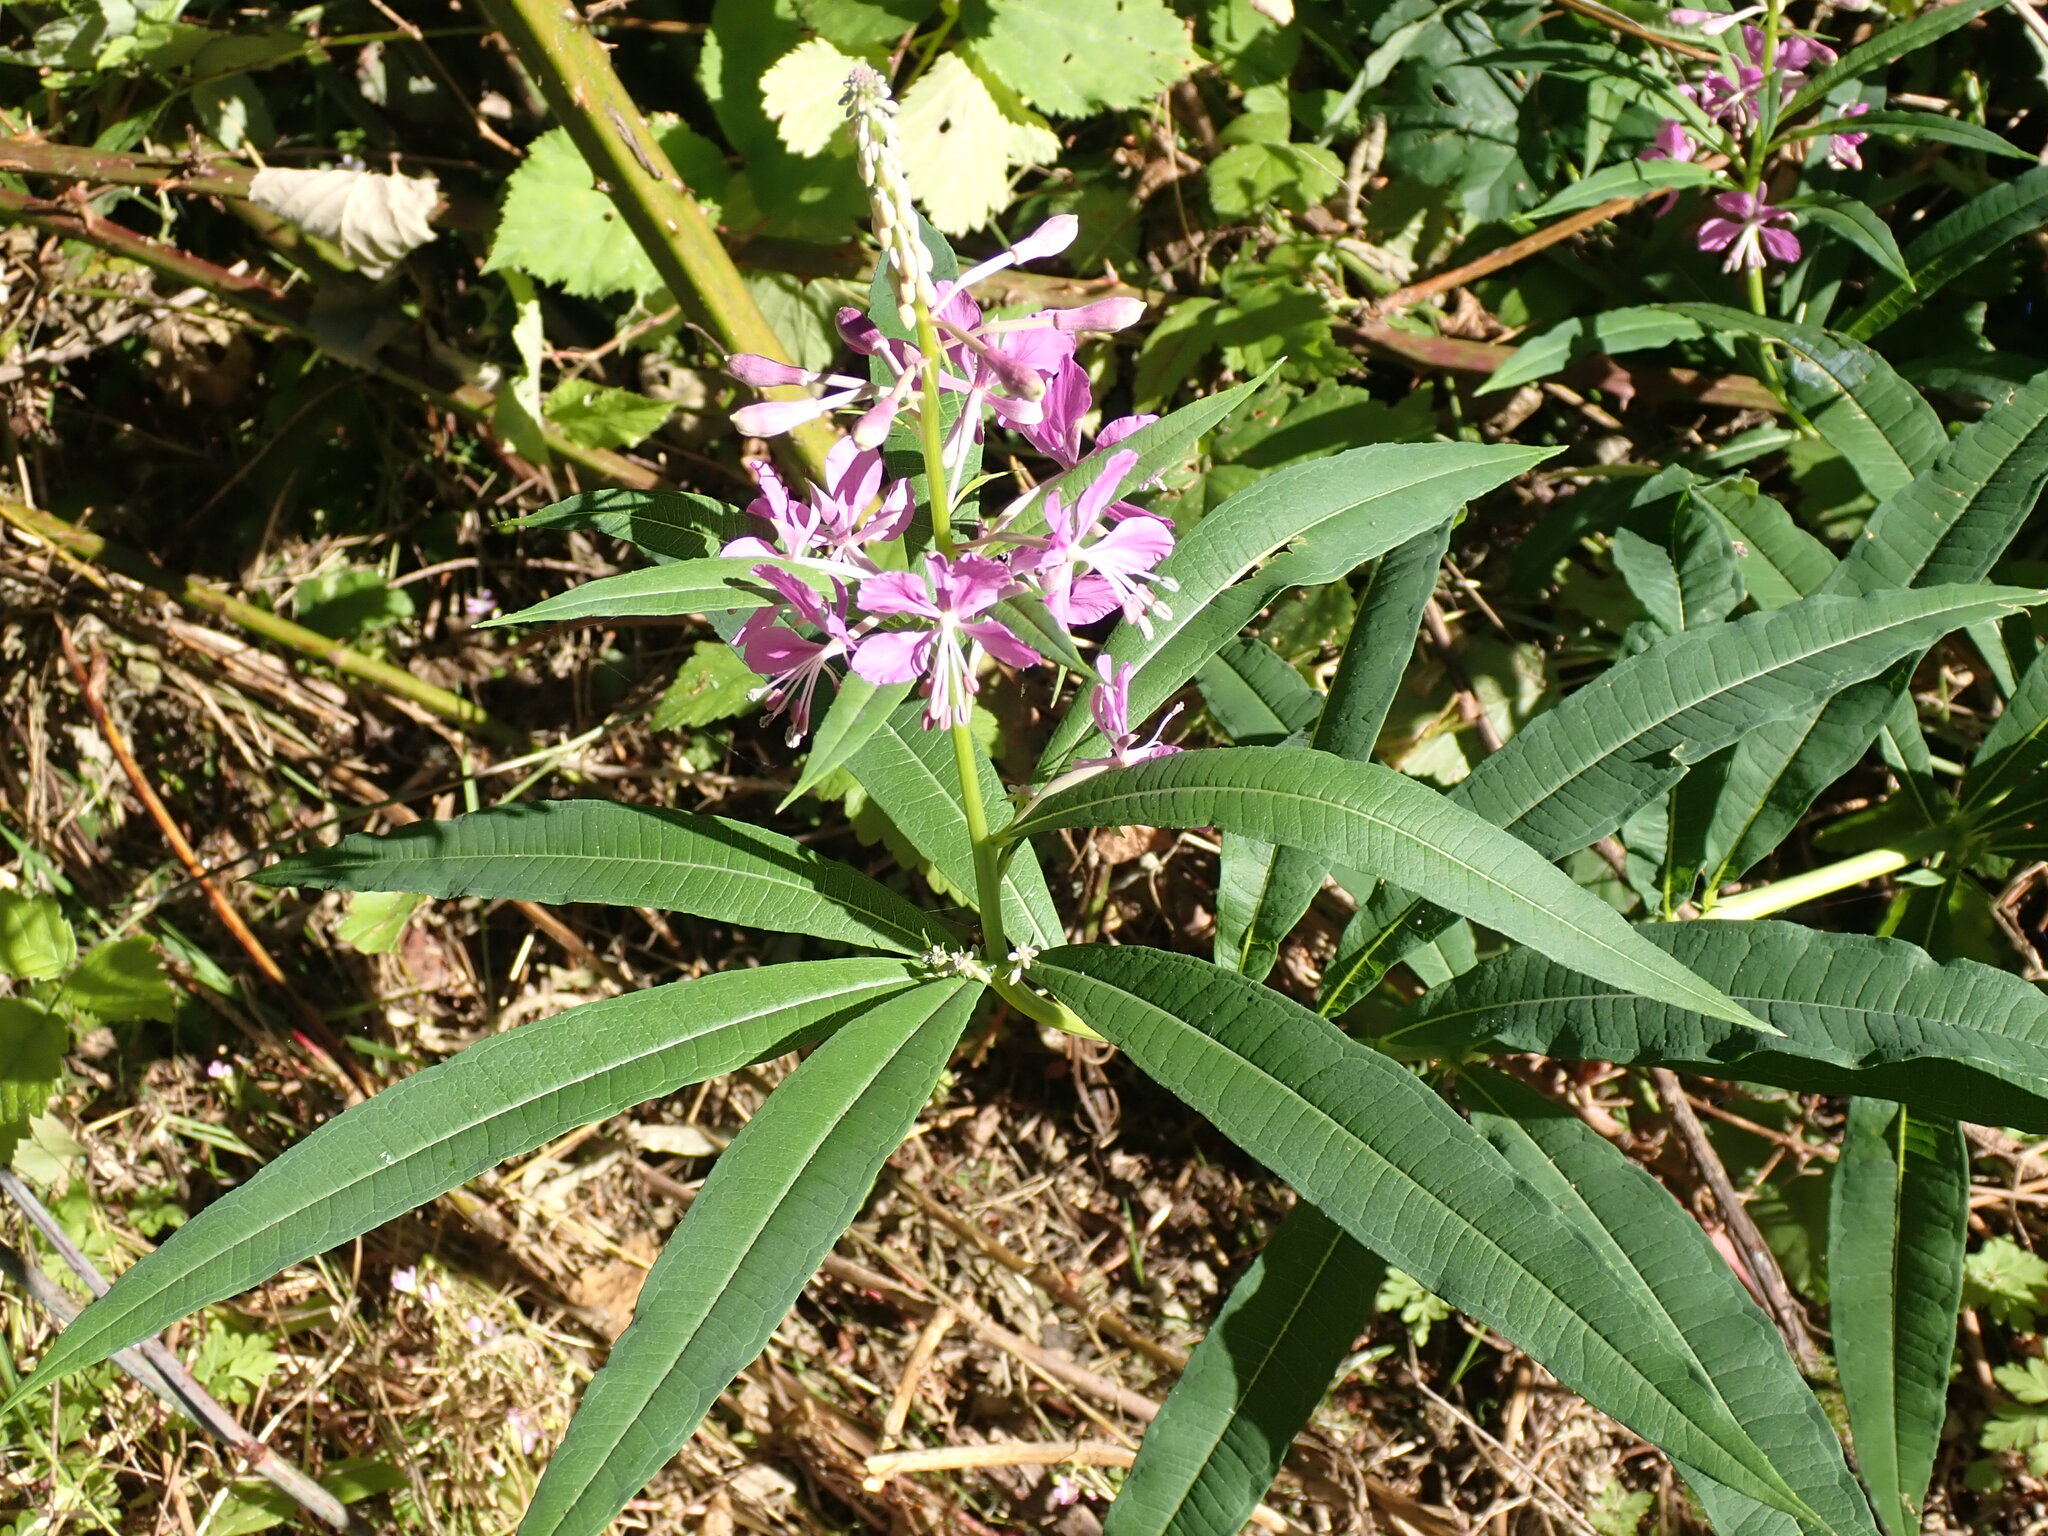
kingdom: Plantae
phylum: Tracheophyta
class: Magnoliopsida
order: Myrtales
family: Onagraceae
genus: Chamaenerion
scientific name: Chamaenerion angustifolium
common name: Fireweed
